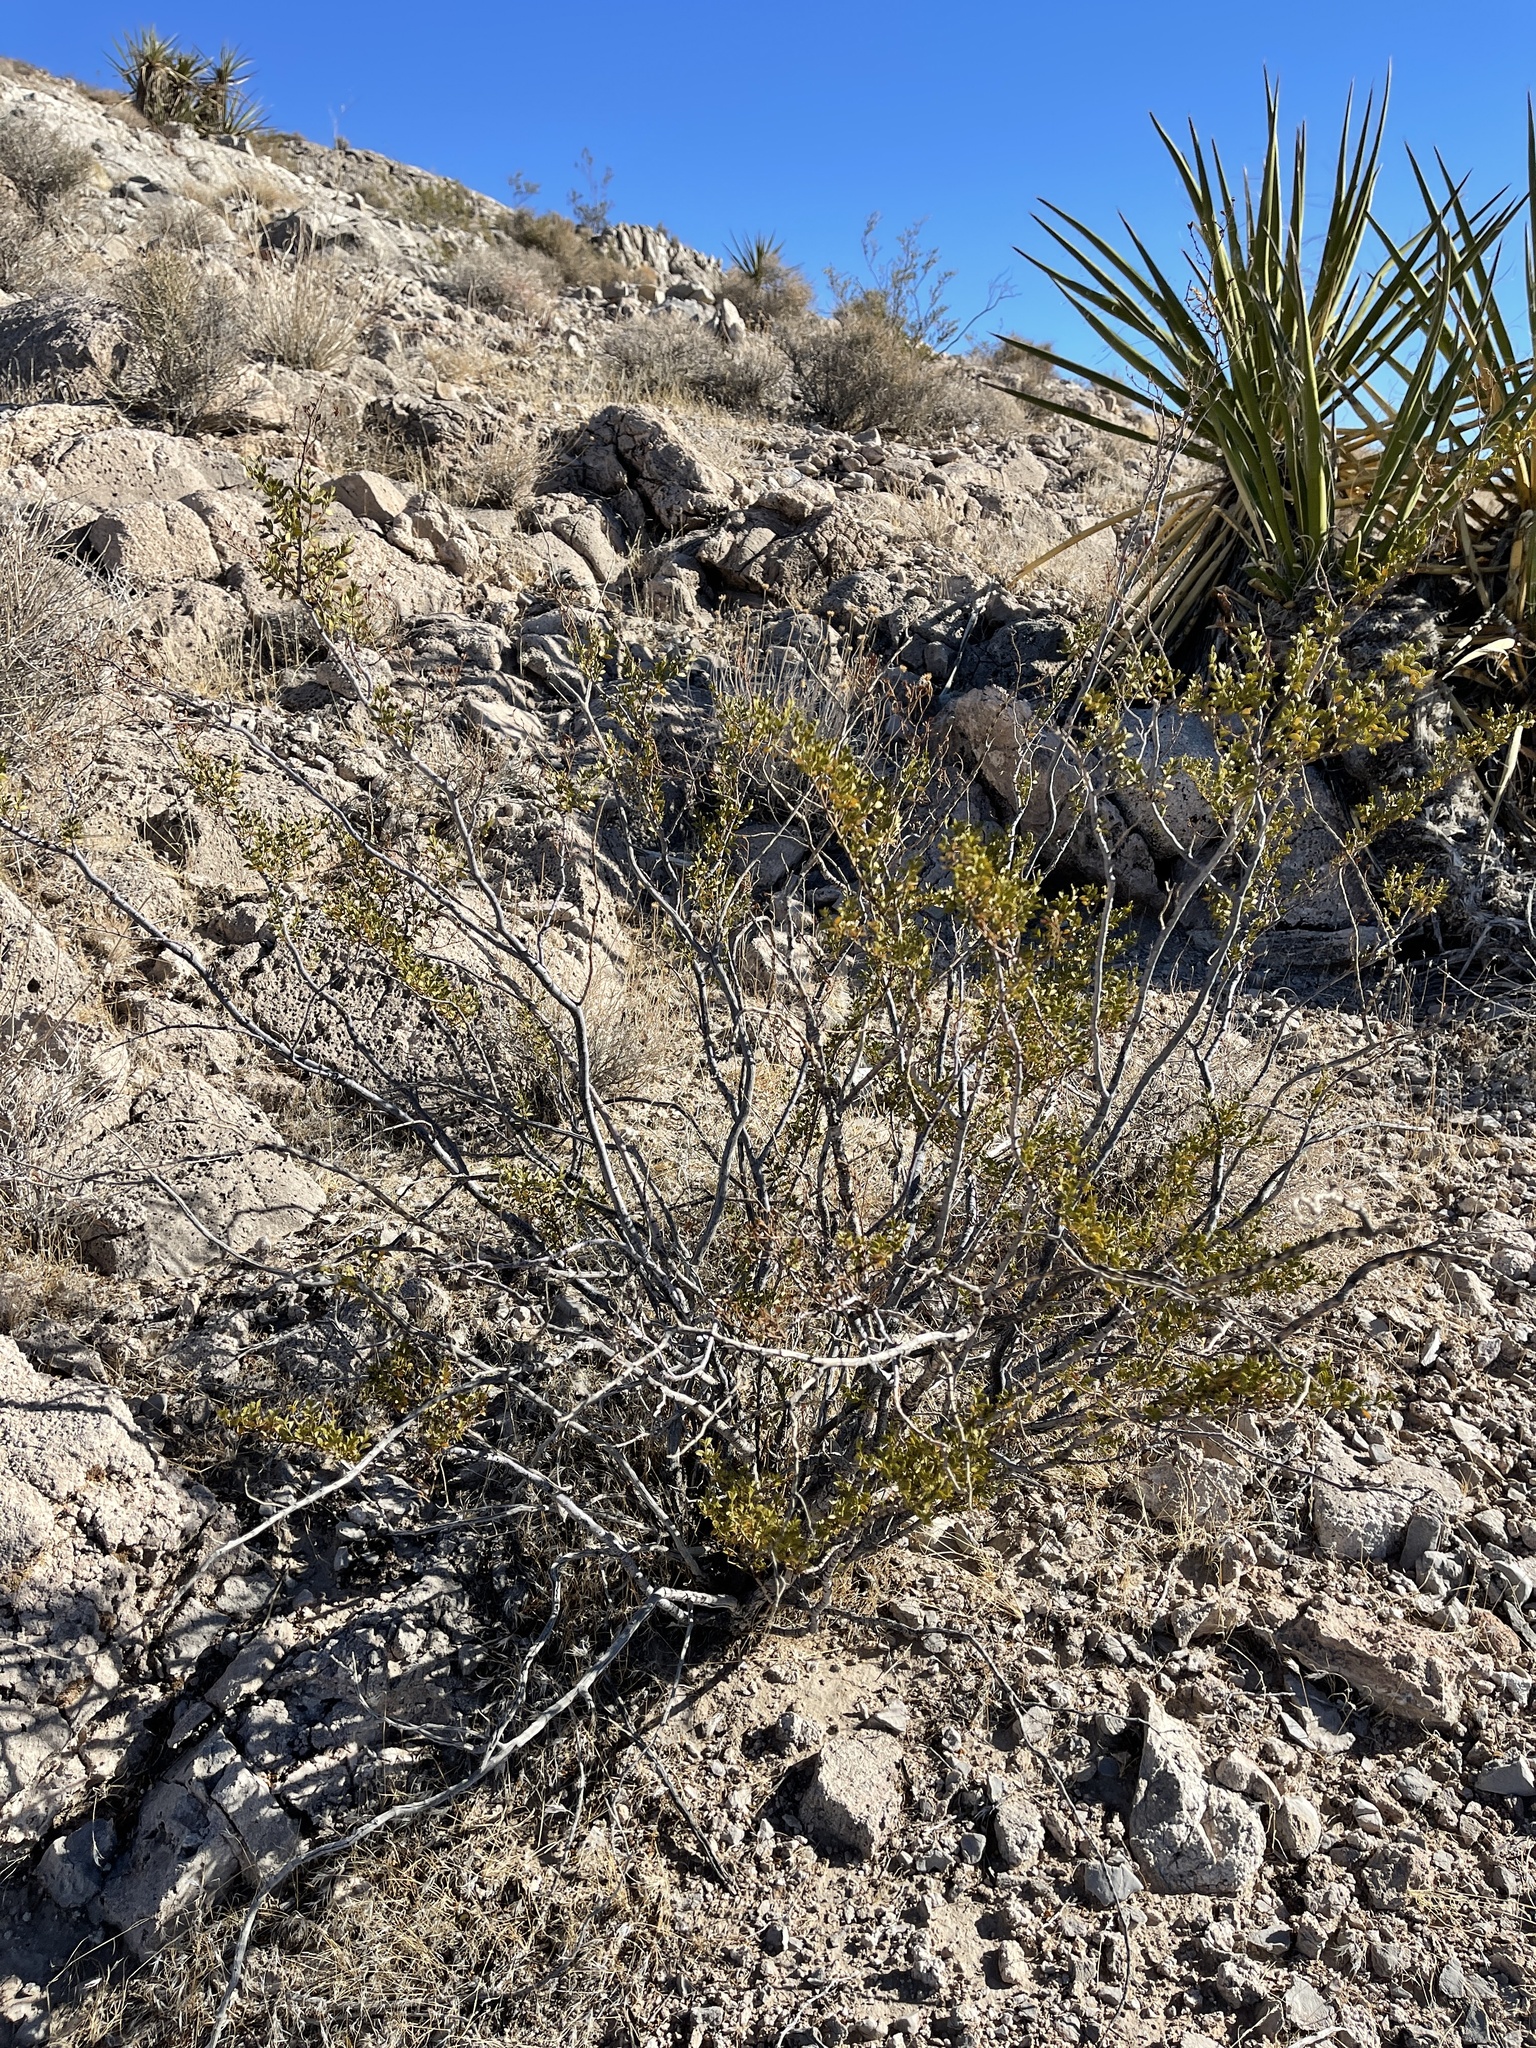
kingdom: Plantae
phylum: Tracheophyta
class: Magnoliopsida
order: Zygophyllales
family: Zygophyllaceae
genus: Larrea
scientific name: Larrea tridentata
